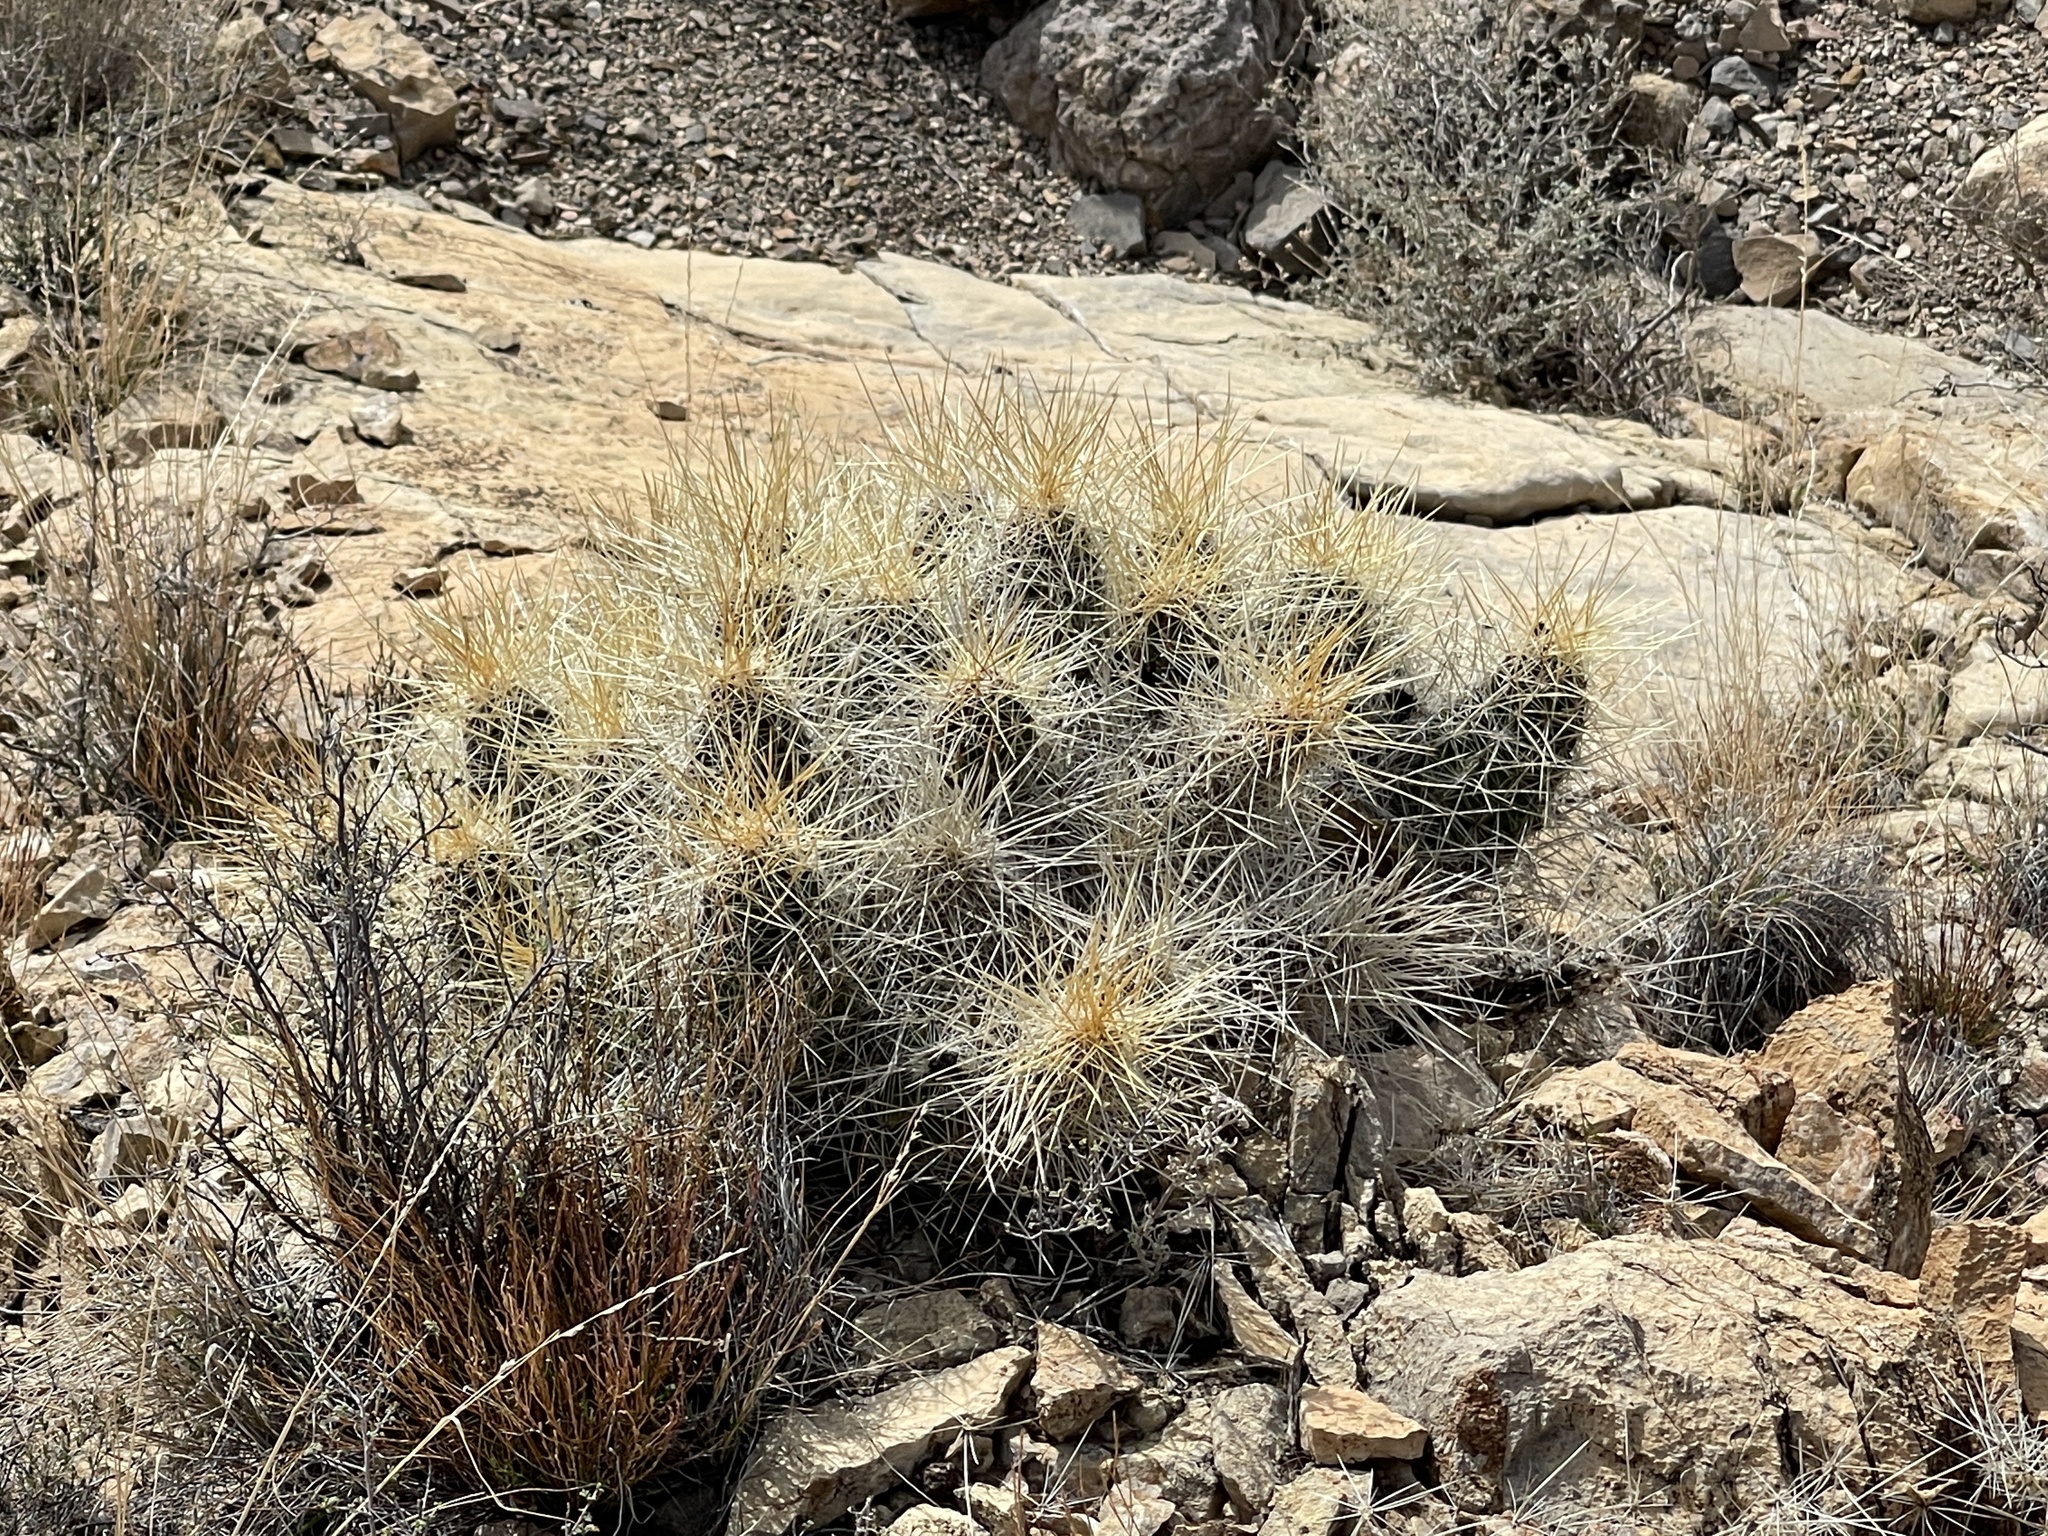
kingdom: Plantae
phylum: Tracheophyta
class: Magnoliopsida
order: Caryophyllales
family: Cactaceae
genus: Echinocereus
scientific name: Echinocereus stramineus
